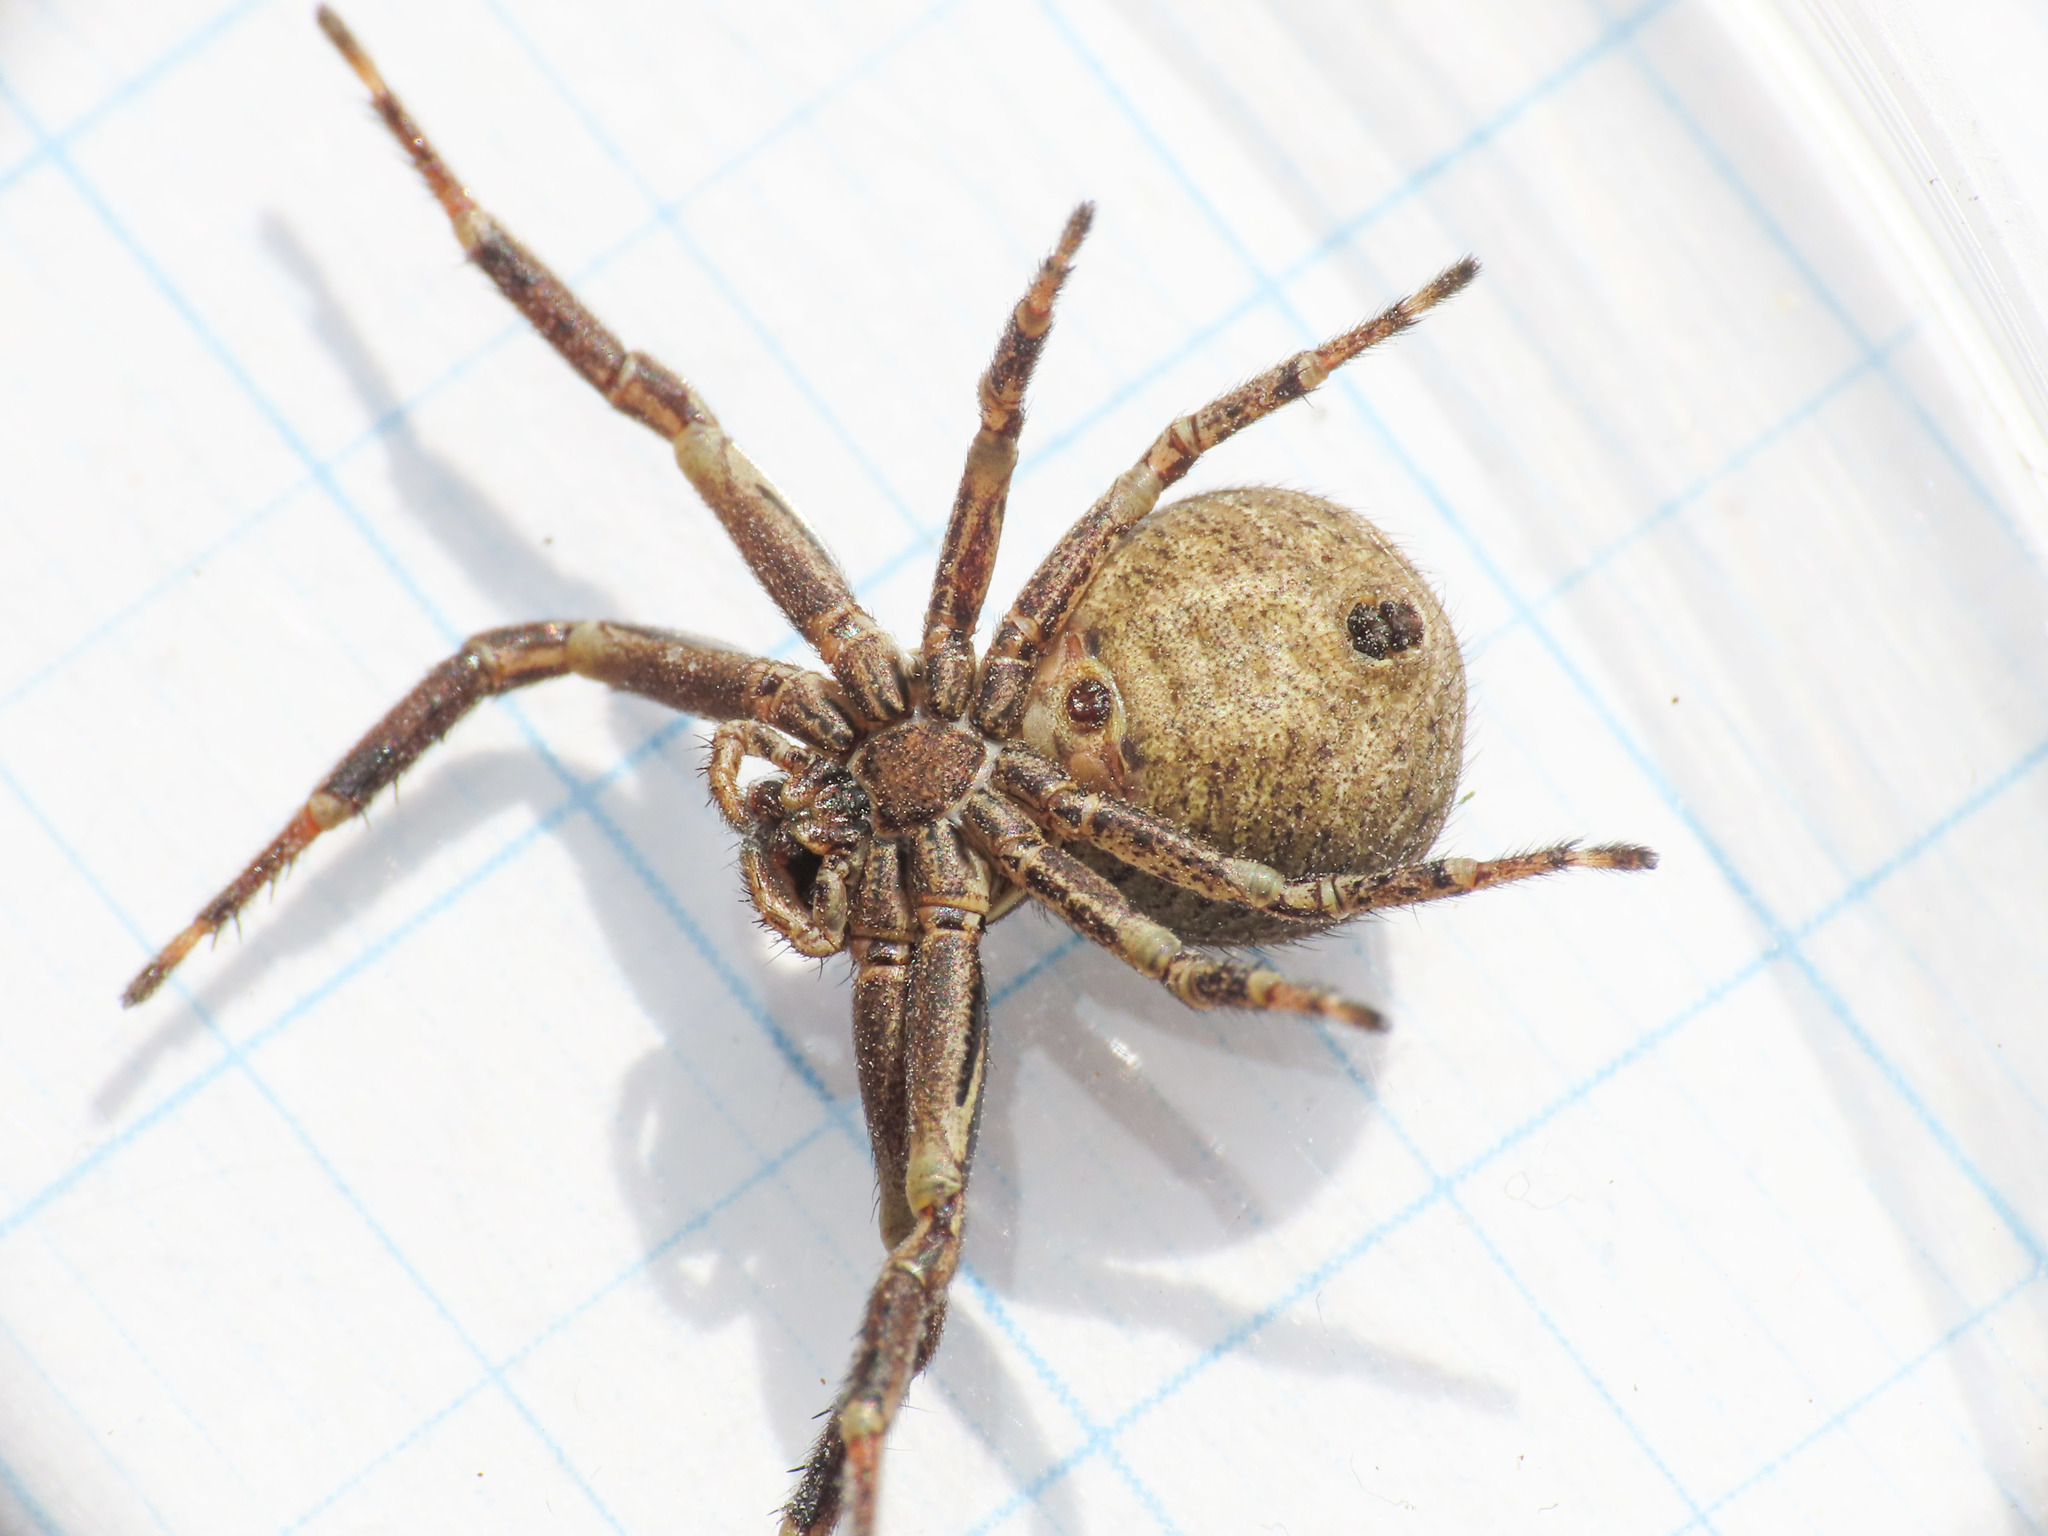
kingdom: Animalia
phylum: Arthropoda
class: Arachnida
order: Araneae
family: Thomisidae
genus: Xysticus
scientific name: Xysticus acerbus
